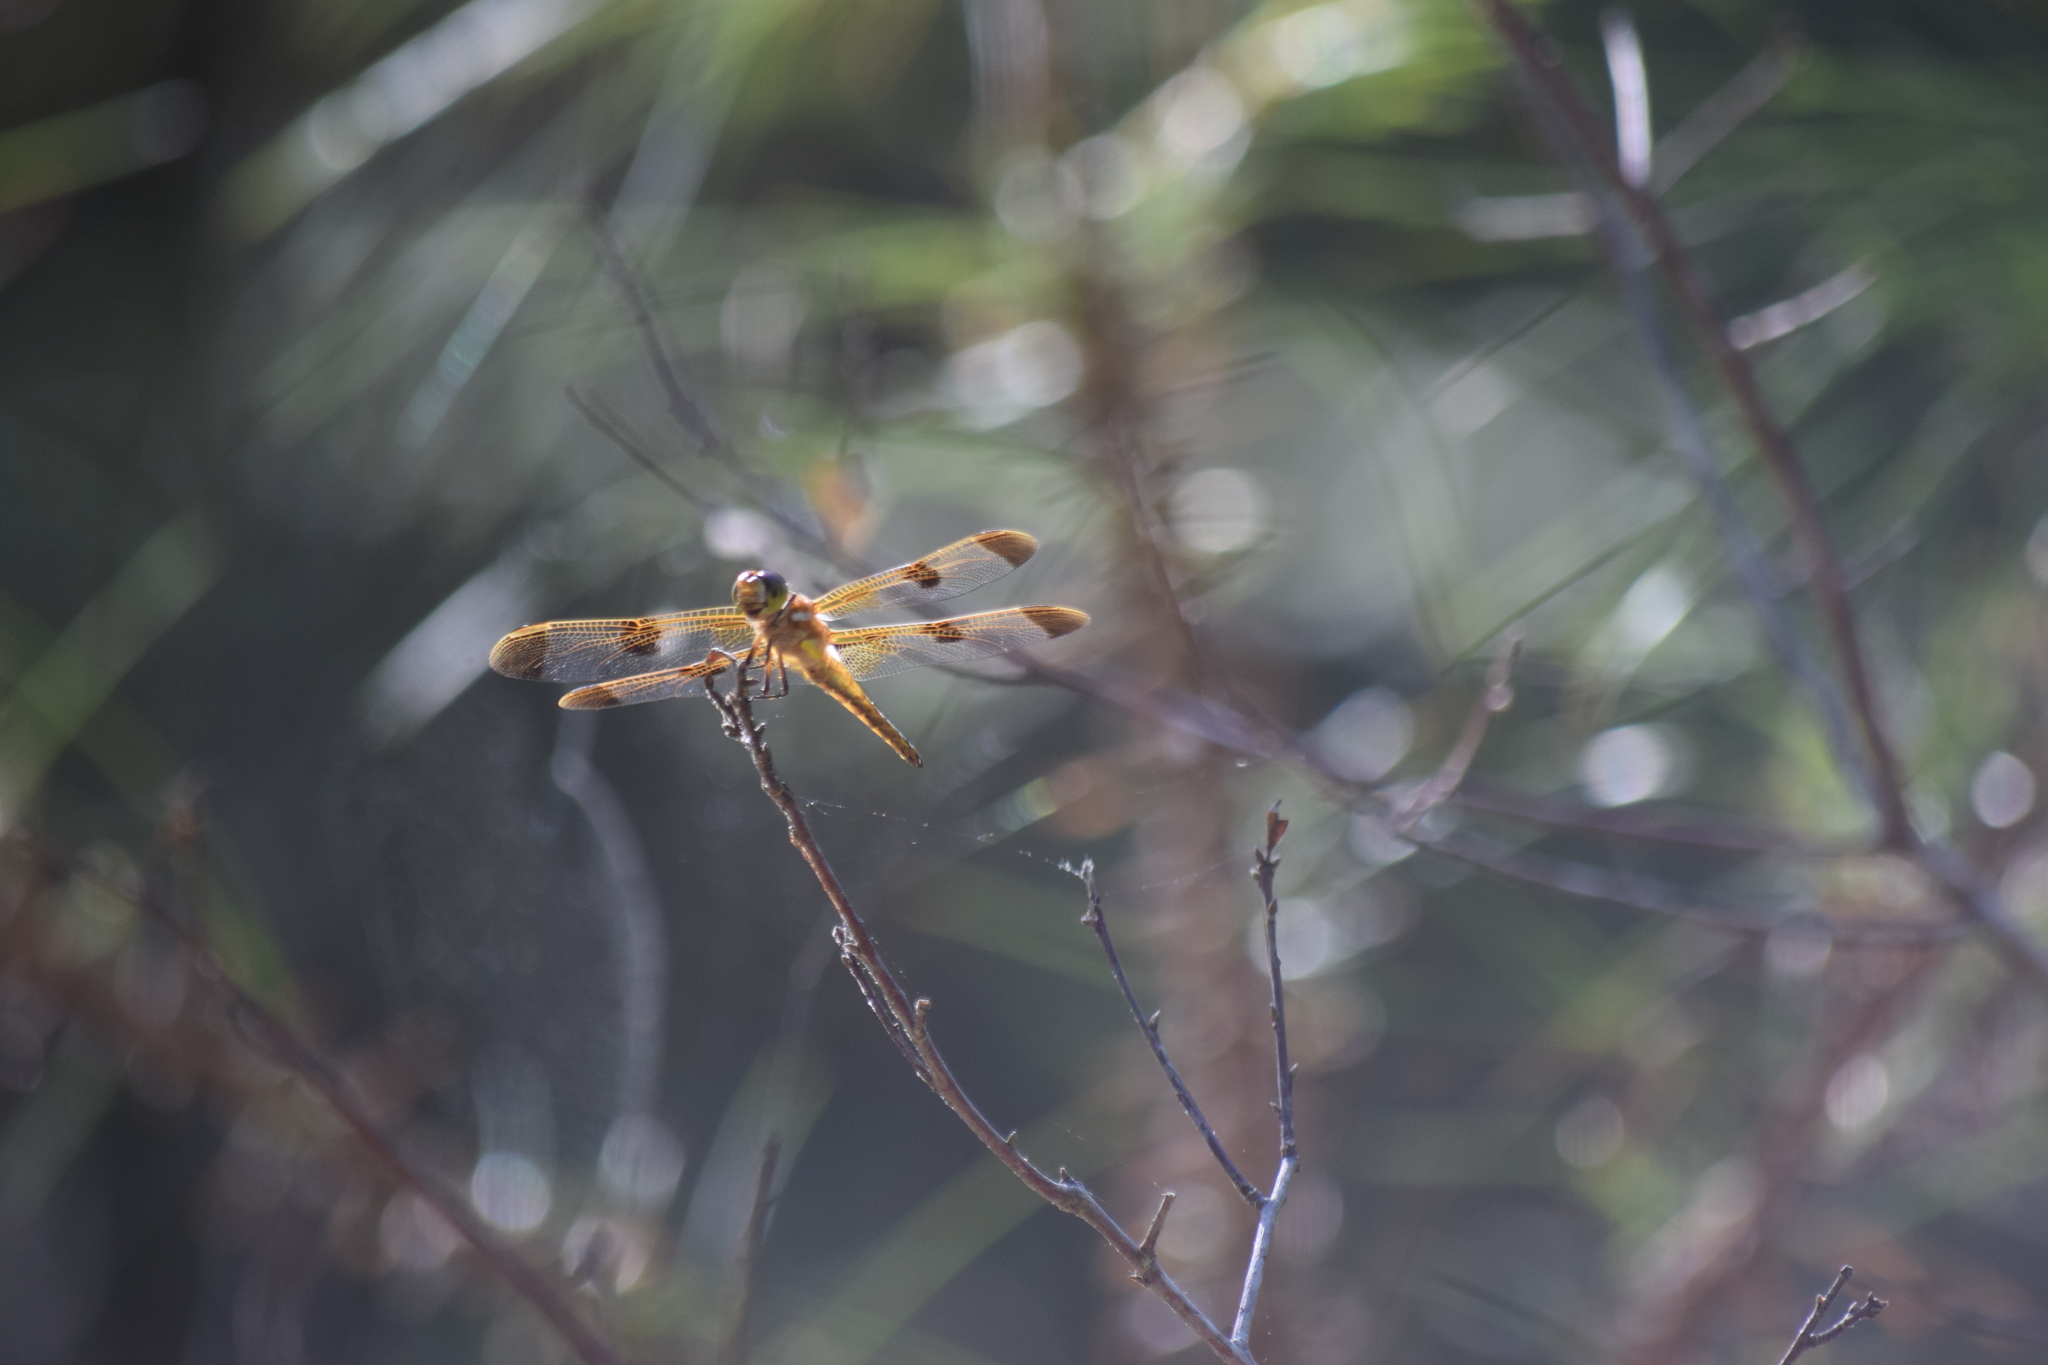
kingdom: Animalia
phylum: Arthropoda
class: Insecta
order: Odonata
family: Libellulidae
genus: Libellula
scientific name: Libellula semifasciata
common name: Painted skimmer
